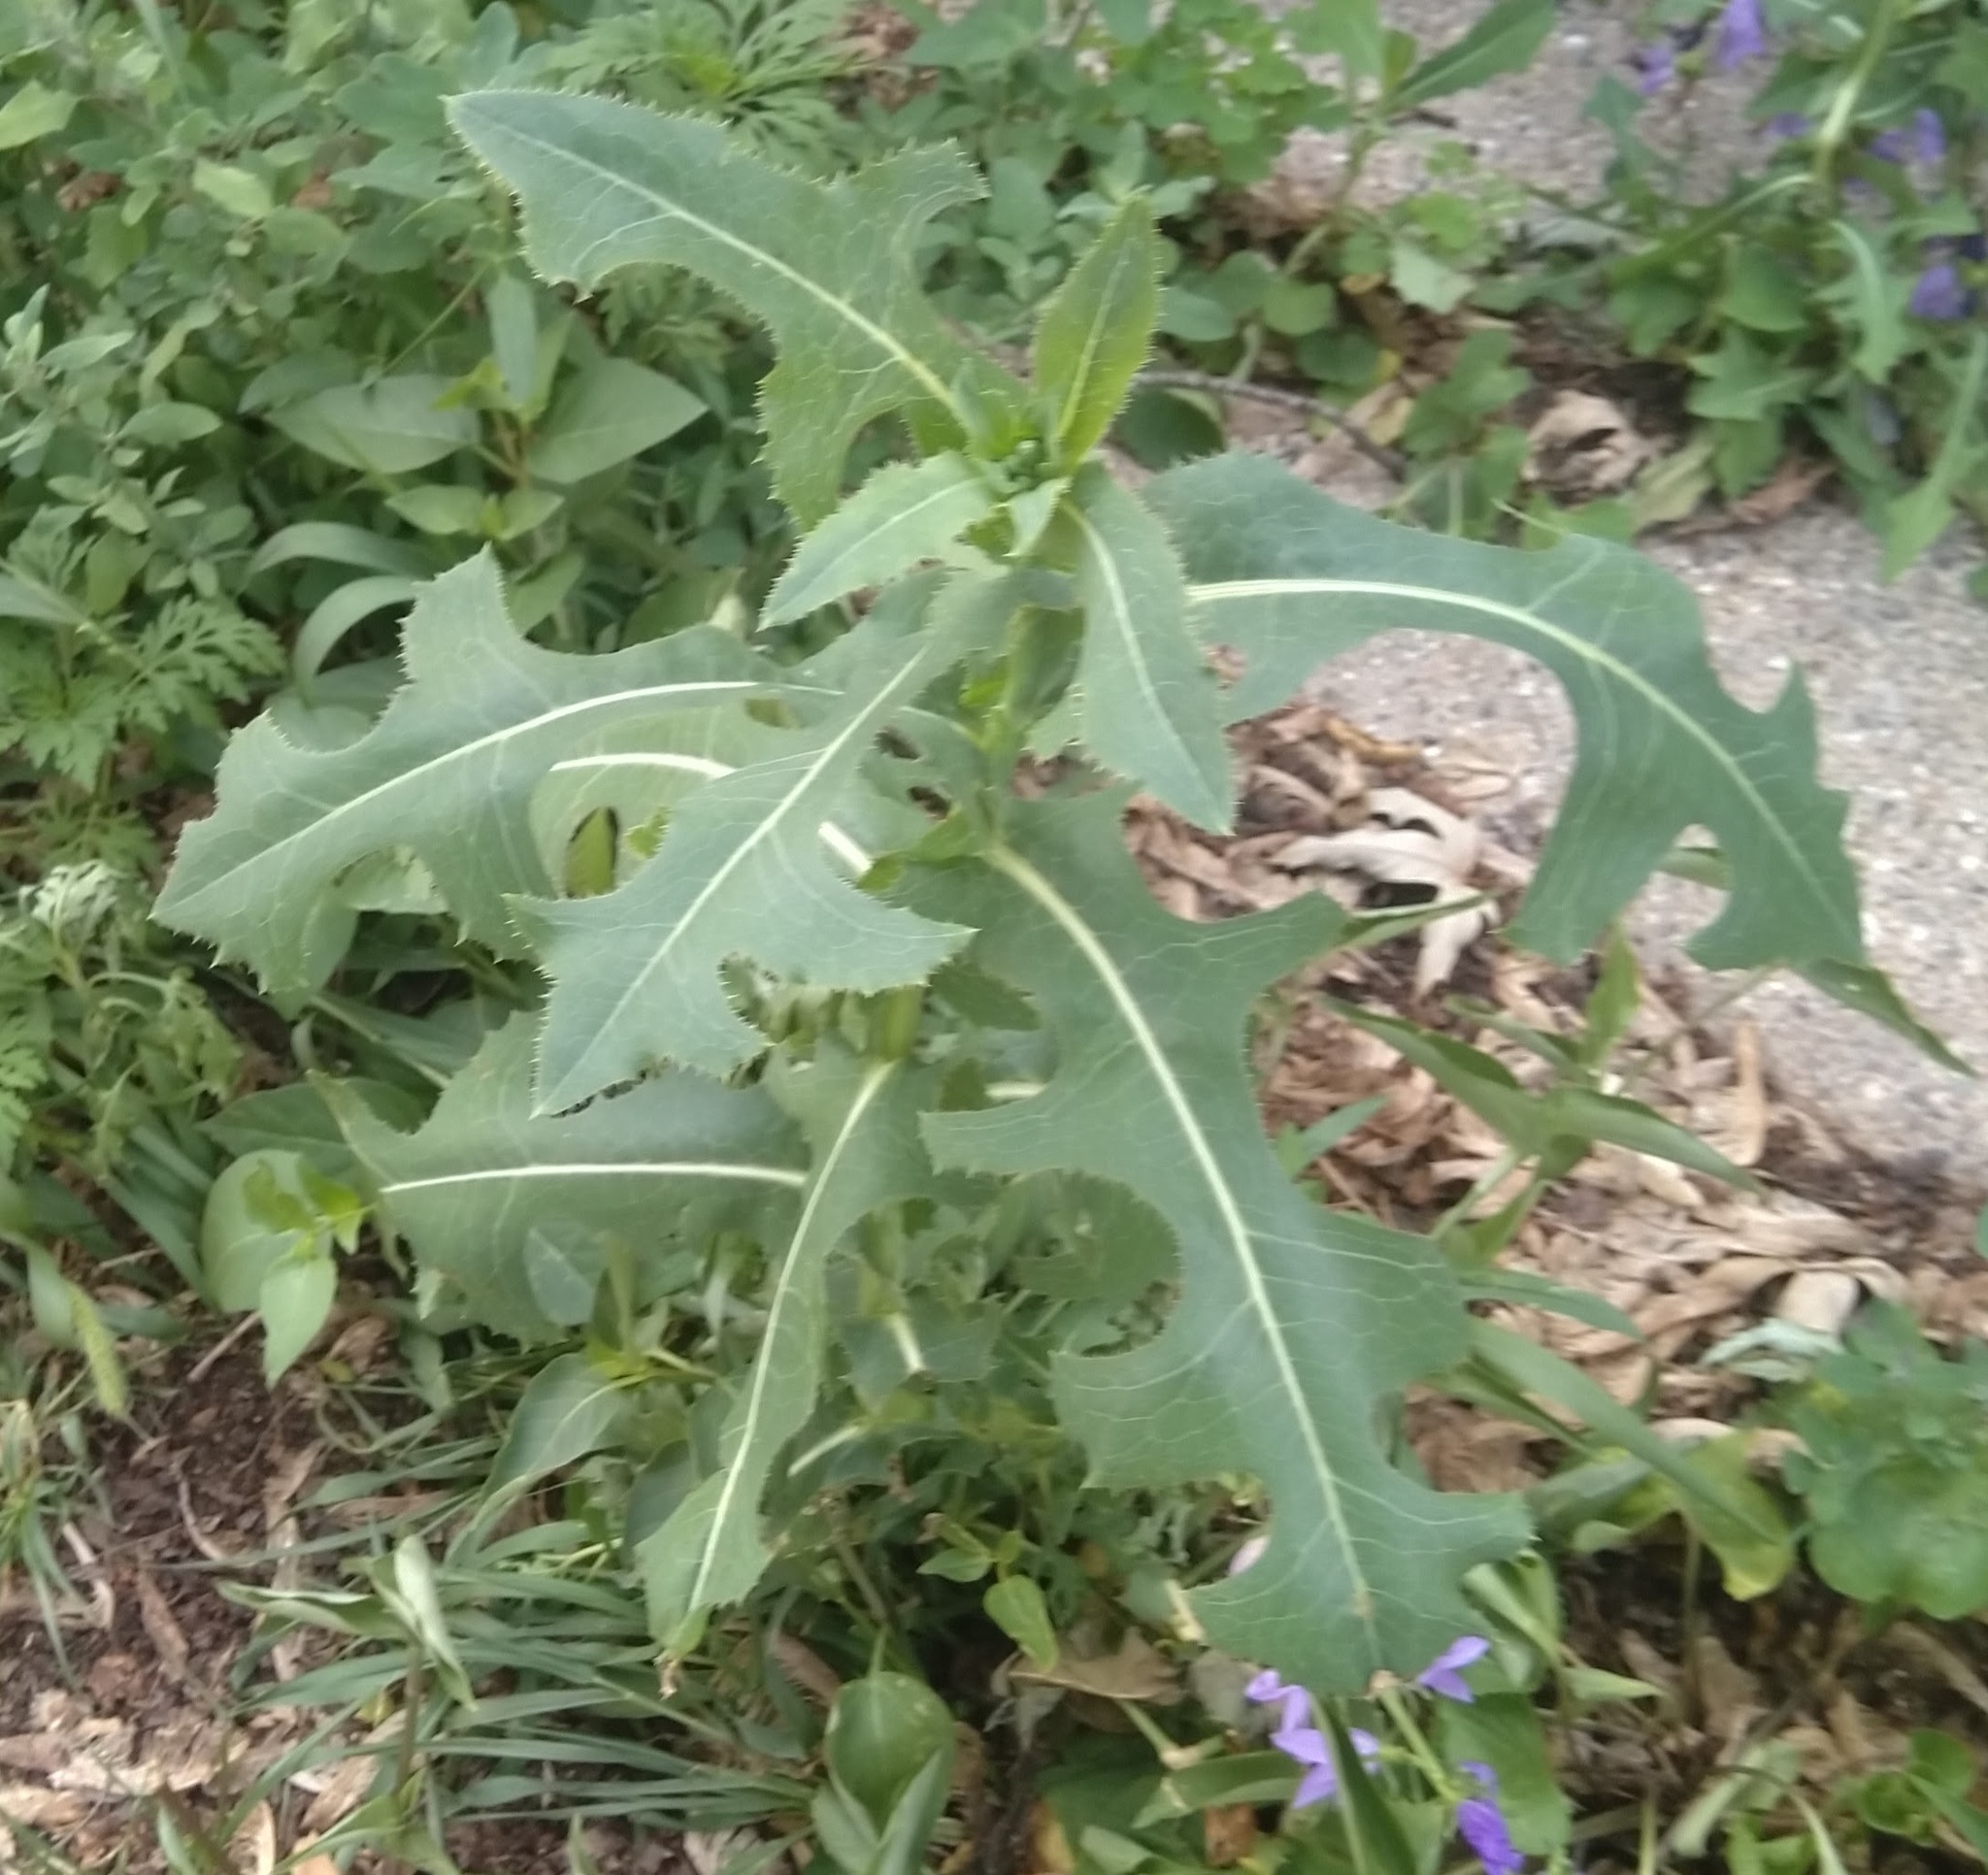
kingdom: Plantae
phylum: Tracheophyta
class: Magnoliopsida
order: Asterales
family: Asteraceae
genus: Lactuca
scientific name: Lactuca serriola
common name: Prickly lettuce
